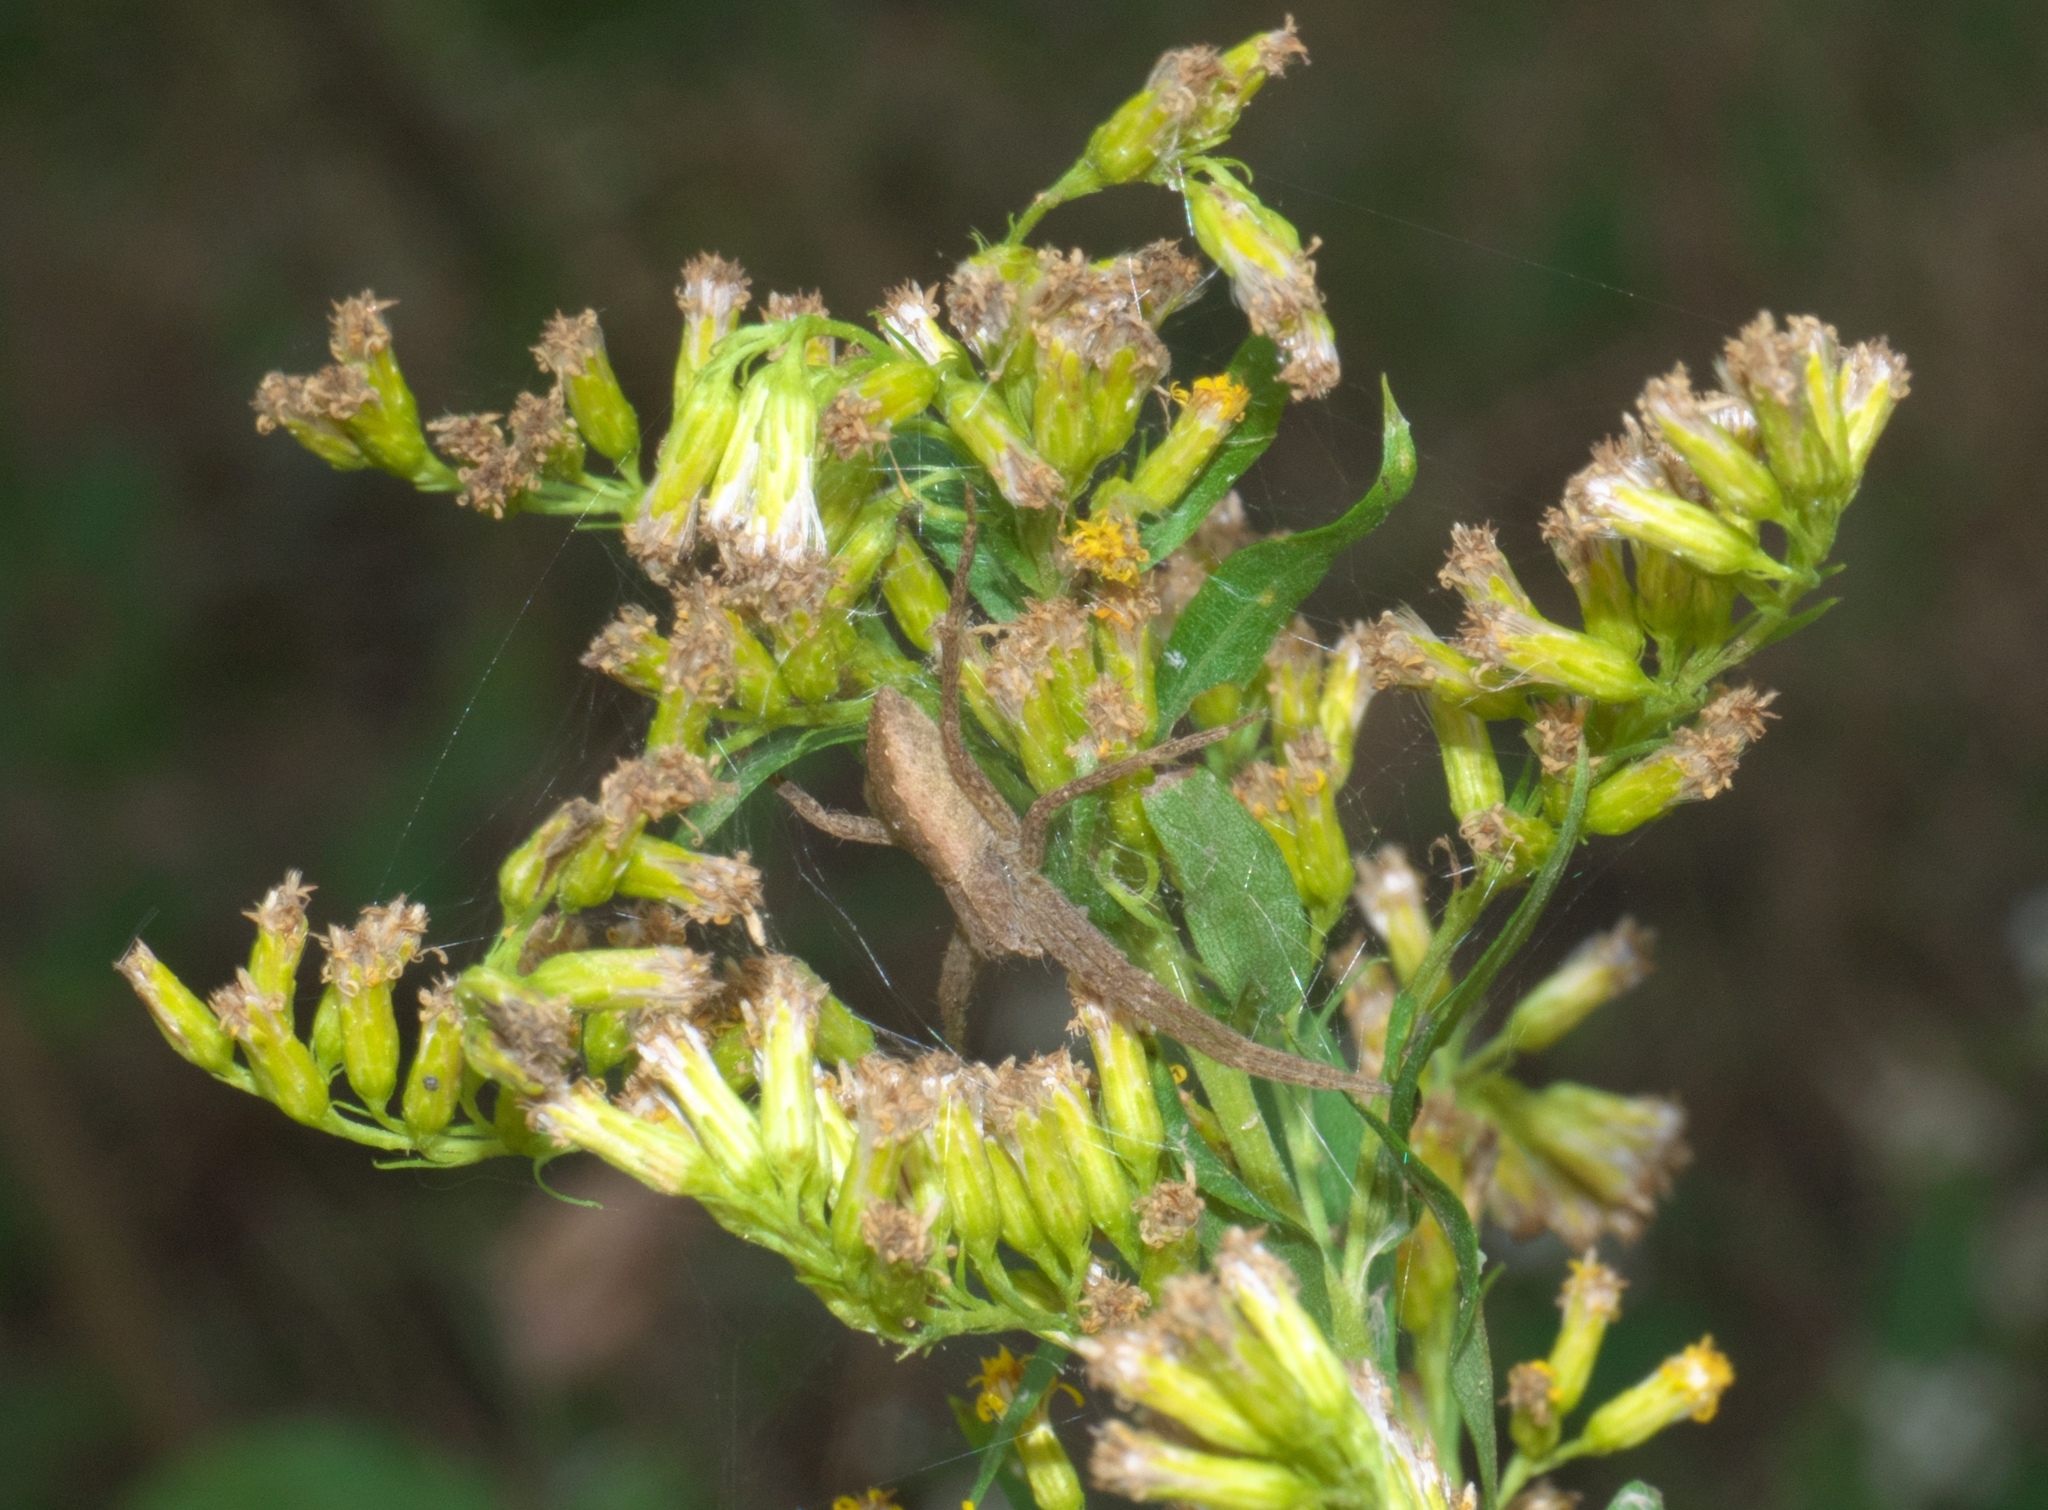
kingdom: Animalia
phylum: Arthropoda
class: Arachnida
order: Araneae
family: Pisauridae
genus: Pisaurina
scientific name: Pisaurina mira
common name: American nursery web spider
